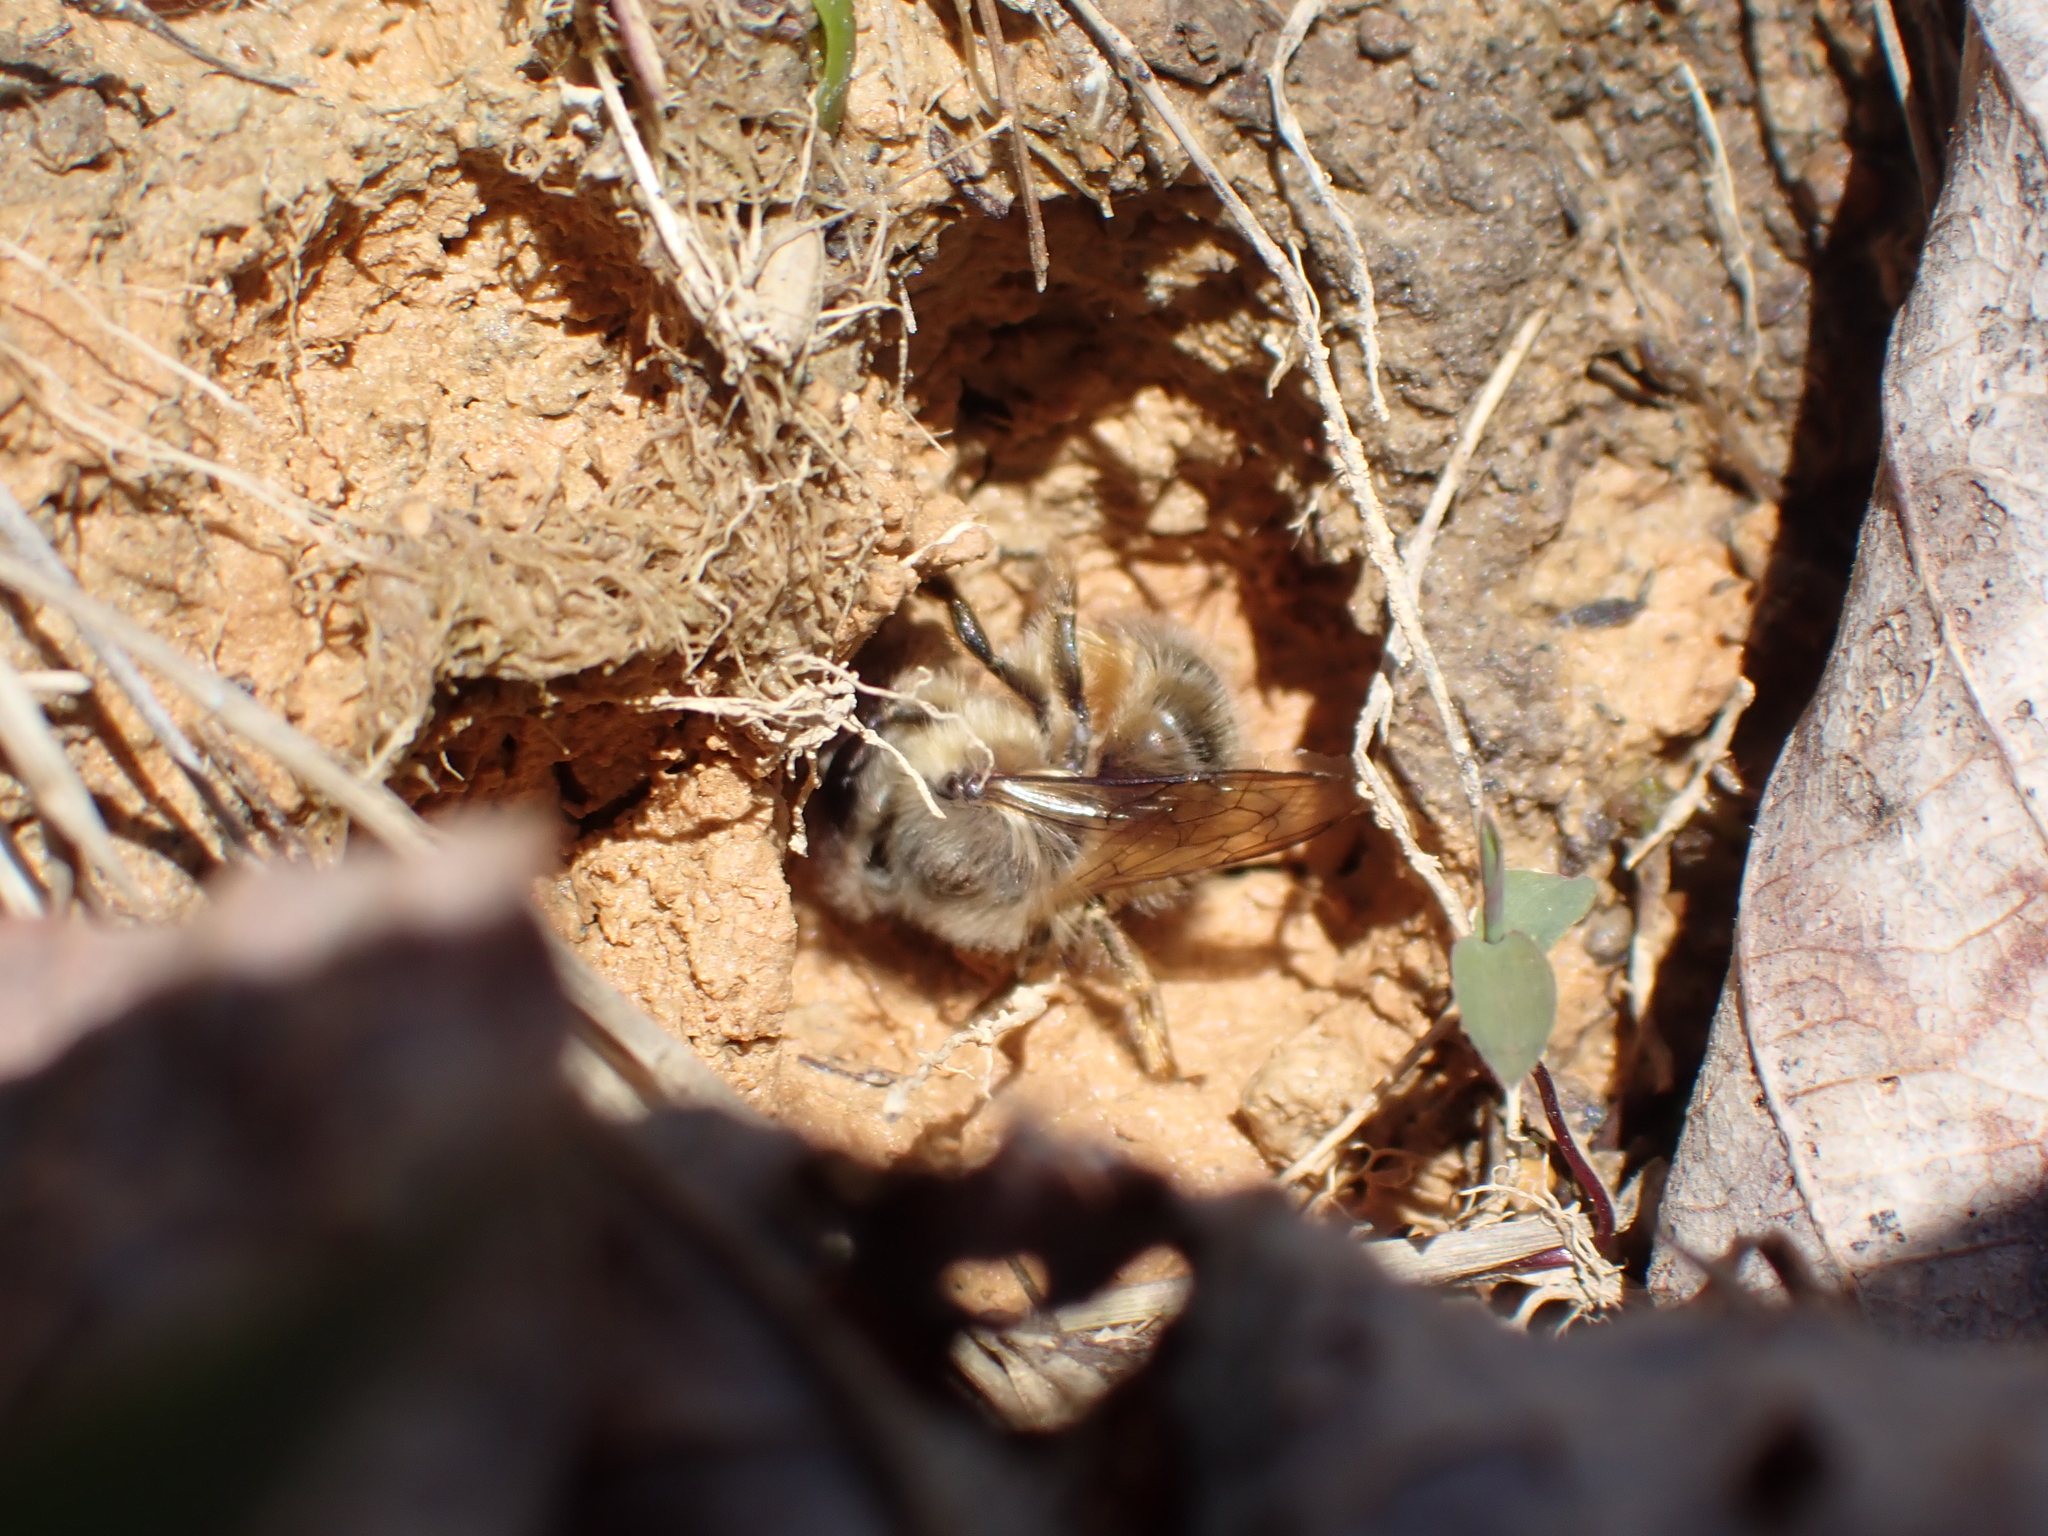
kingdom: Animalia
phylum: Arthropoda
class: Insecta
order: Hymenoptera
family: Megachilidae
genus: Osmia
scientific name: Osmia taurus
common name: Taurus mason bee
